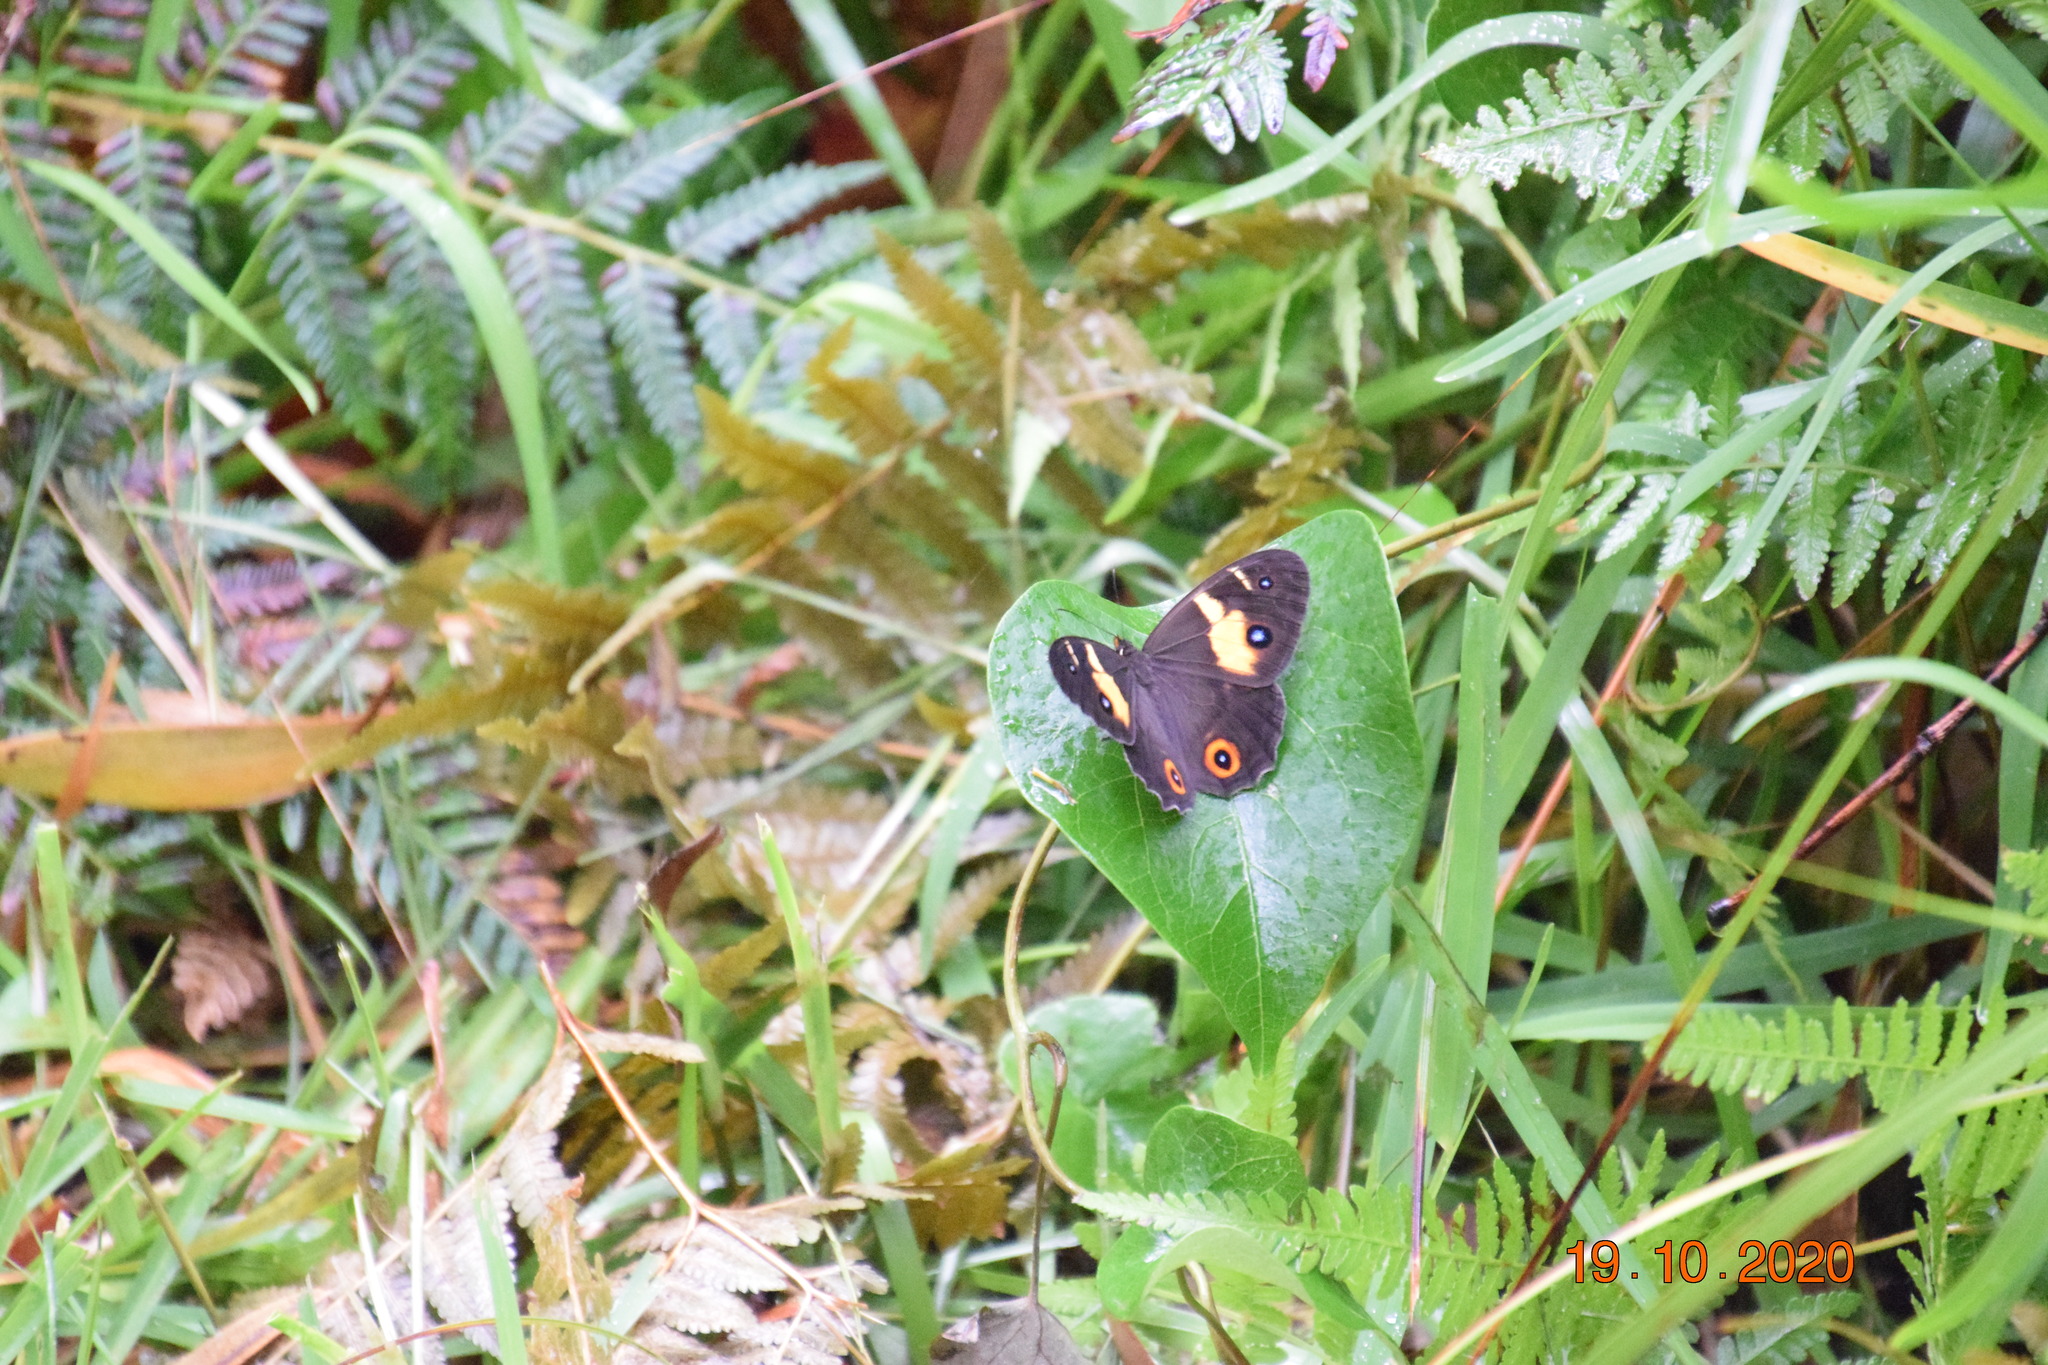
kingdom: Animalia
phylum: Arthropoda
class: Insecta
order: Lepidoptera
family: Nymphalidae
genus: Tisiphone
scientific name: Tisiphone abeona
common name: Swordgrass brown
